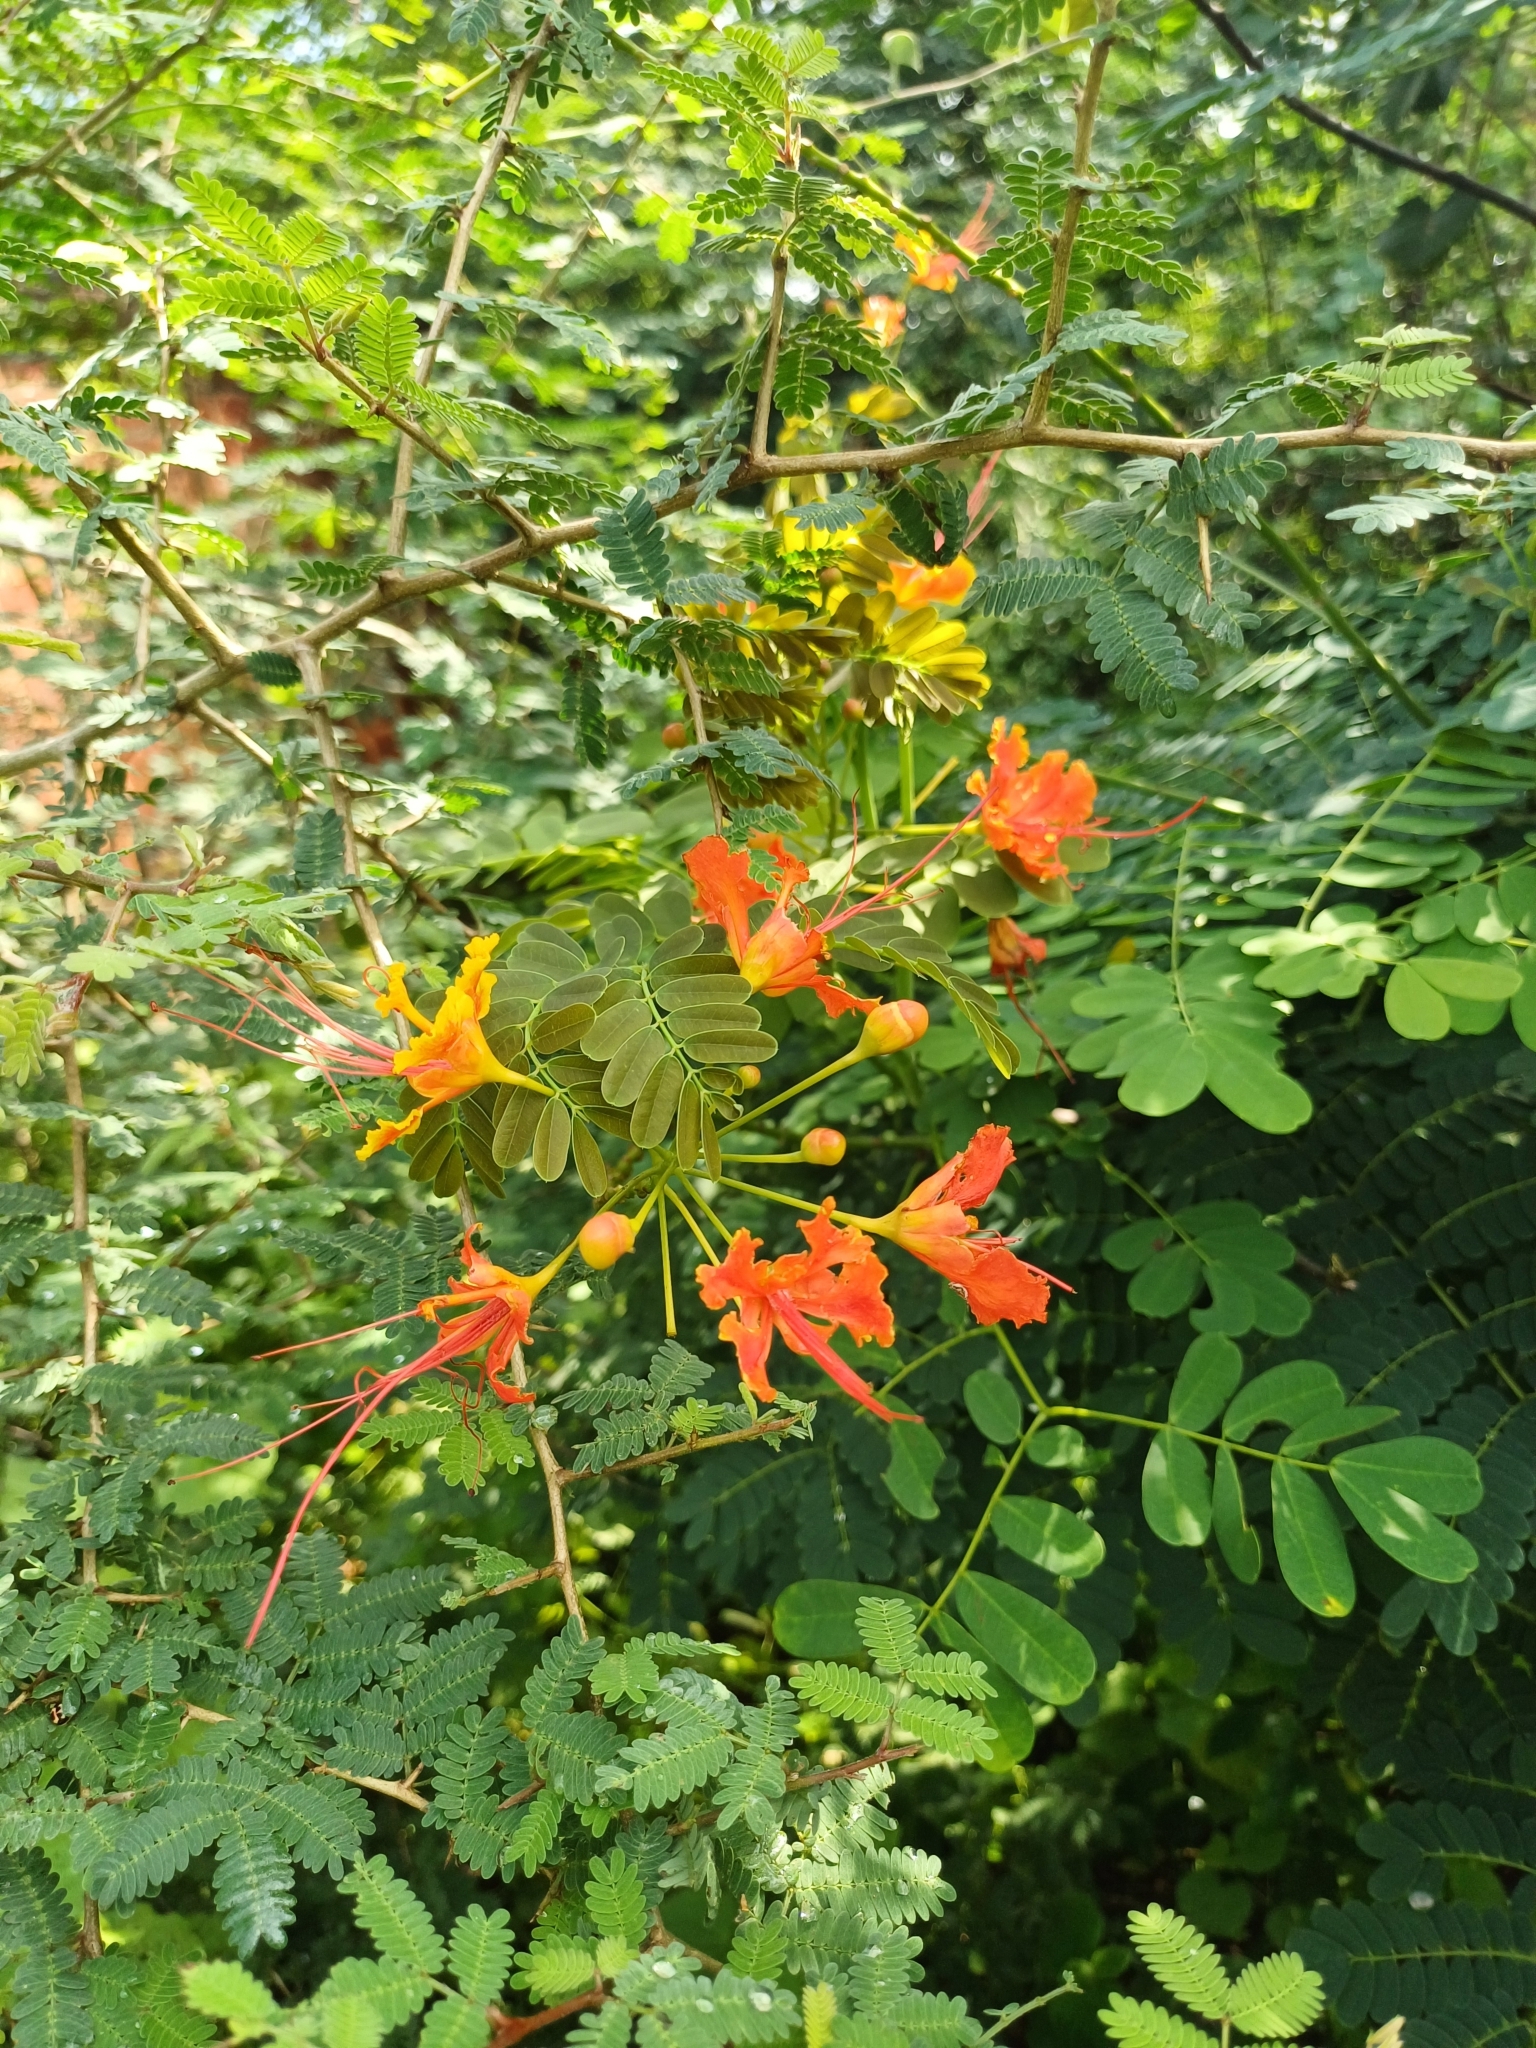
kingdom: Plantae
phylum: Tracheophyta
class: Magnoliopsida
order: Fabales
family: Fabaceae
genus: Caesalpinia
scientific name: Caesalpinia pulcherrima
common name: Pride-of-barbados
